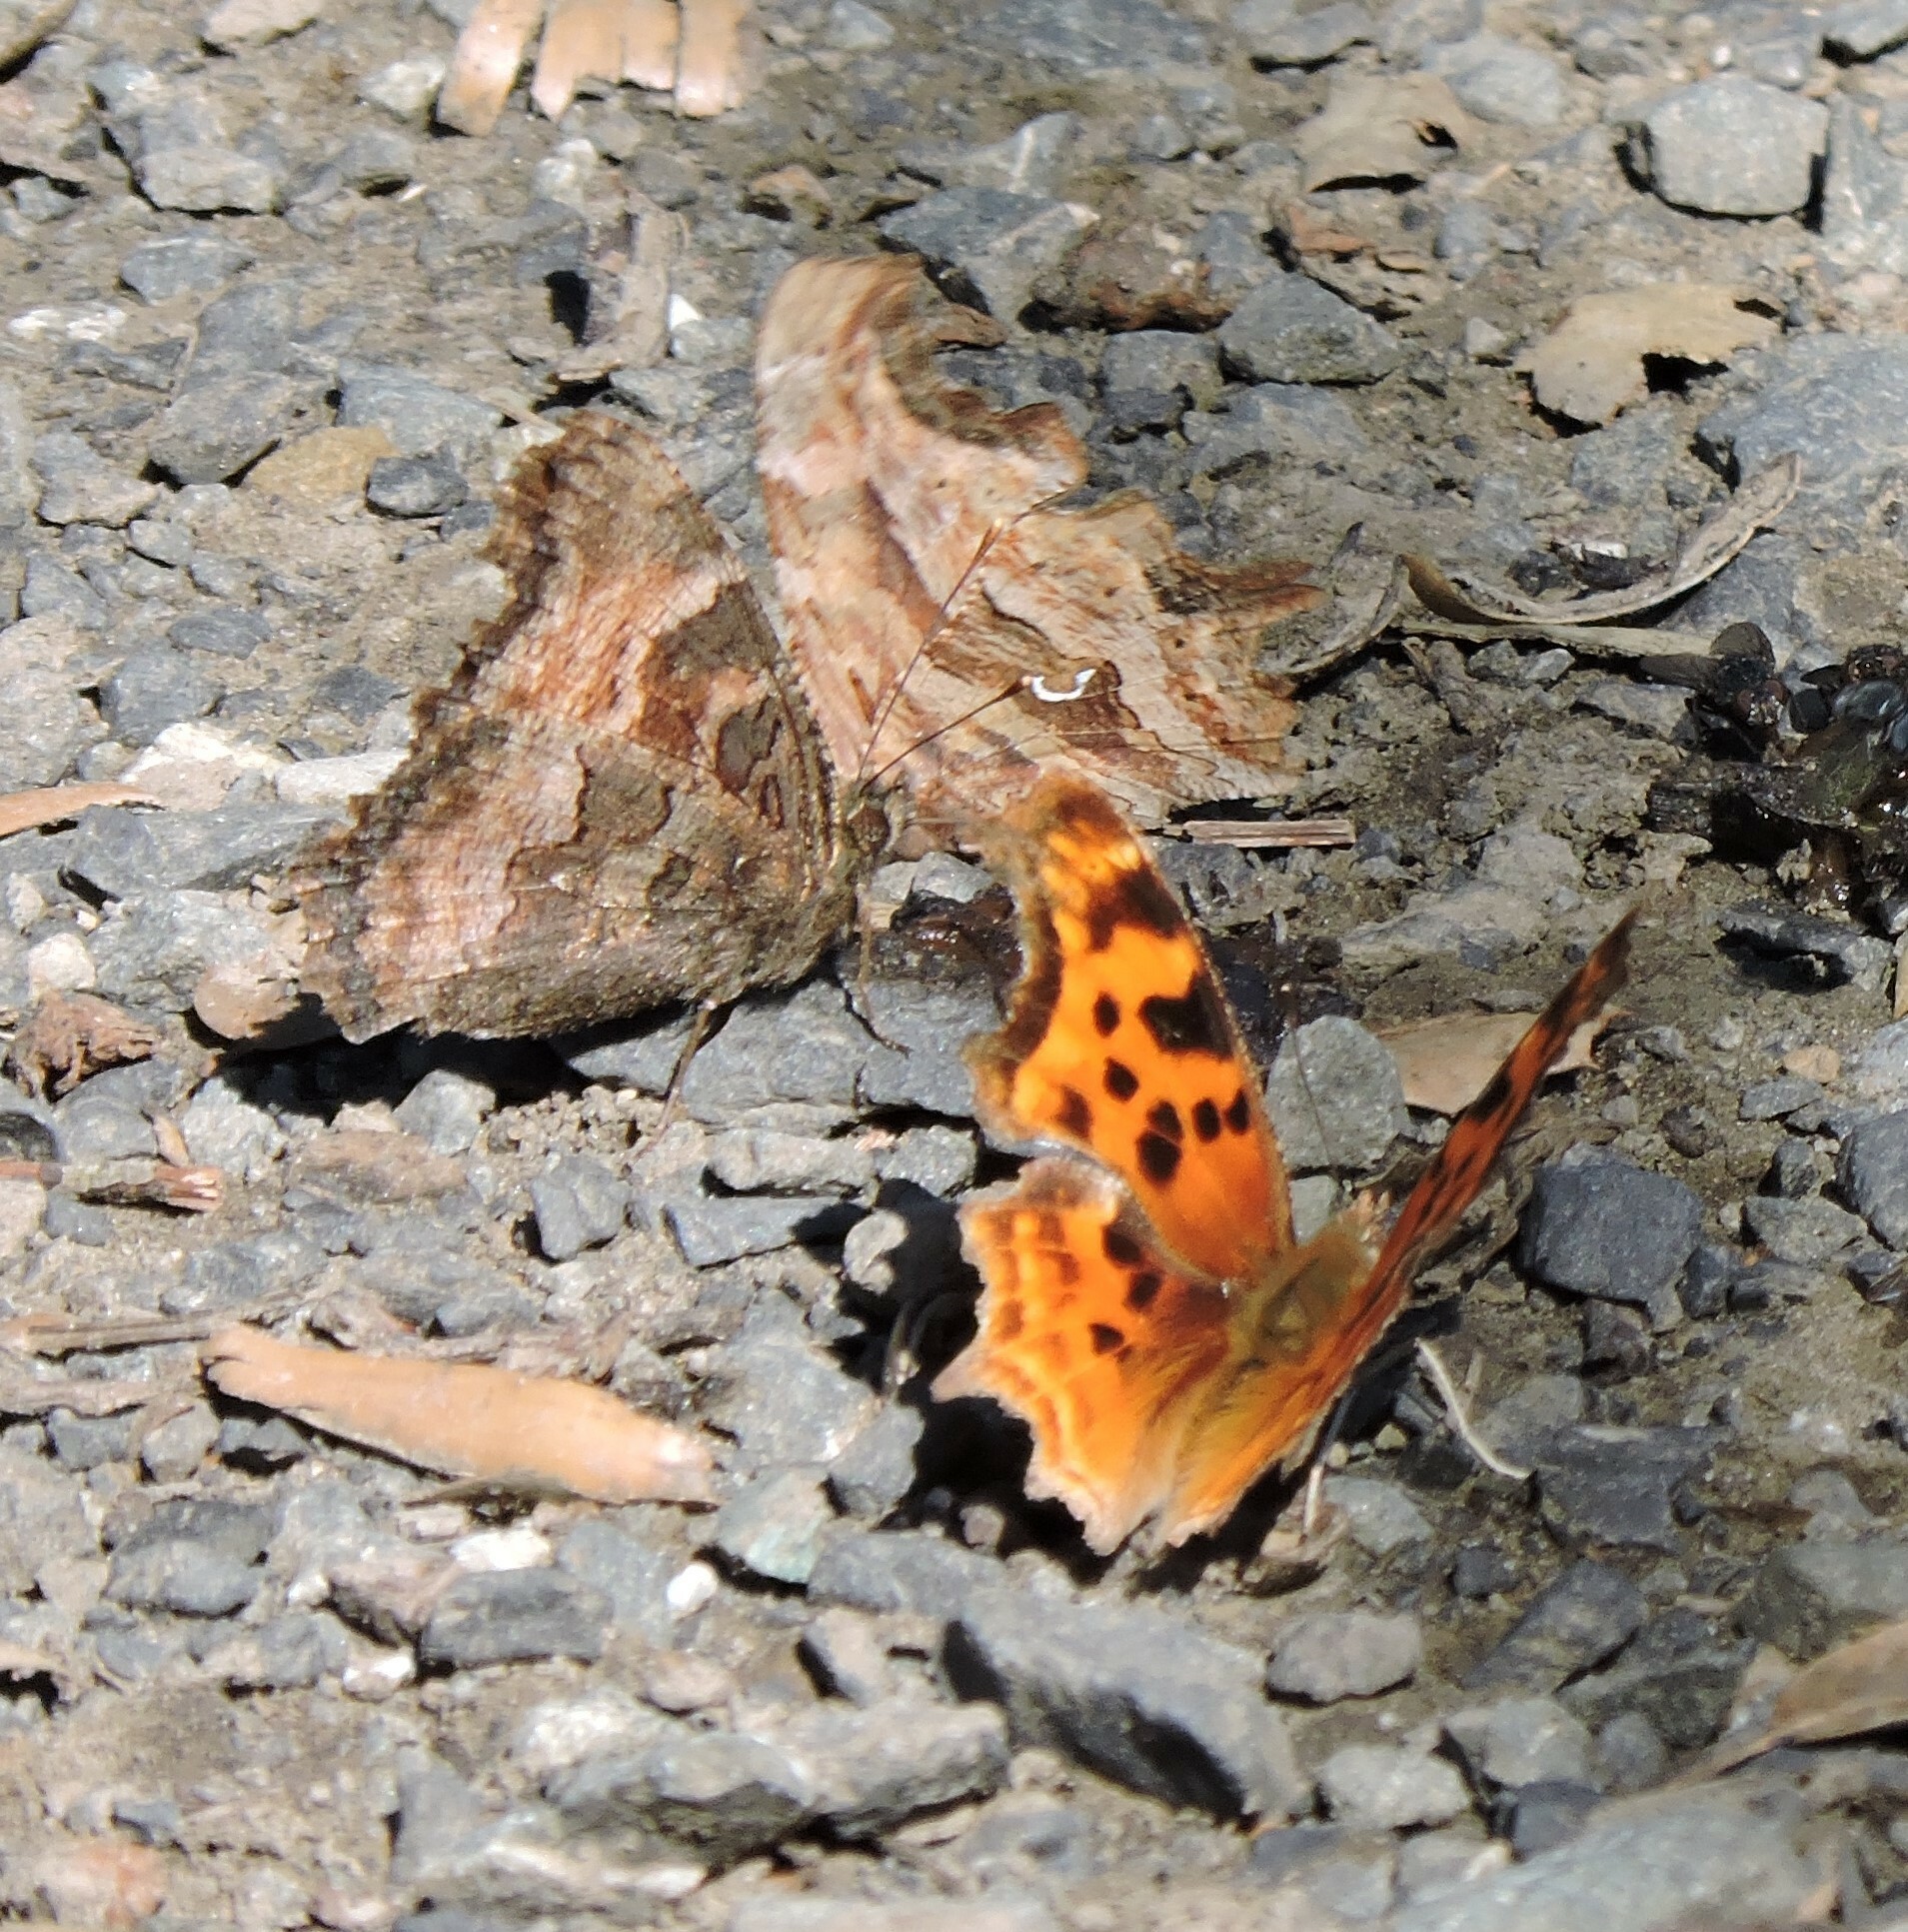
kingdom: Animalia
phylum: Arthropoda
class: Insecta
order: Lepidoptera
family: Nymphalidae
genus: Polygonia
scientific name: Polygonia satyrus
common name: Satyr angle wing
